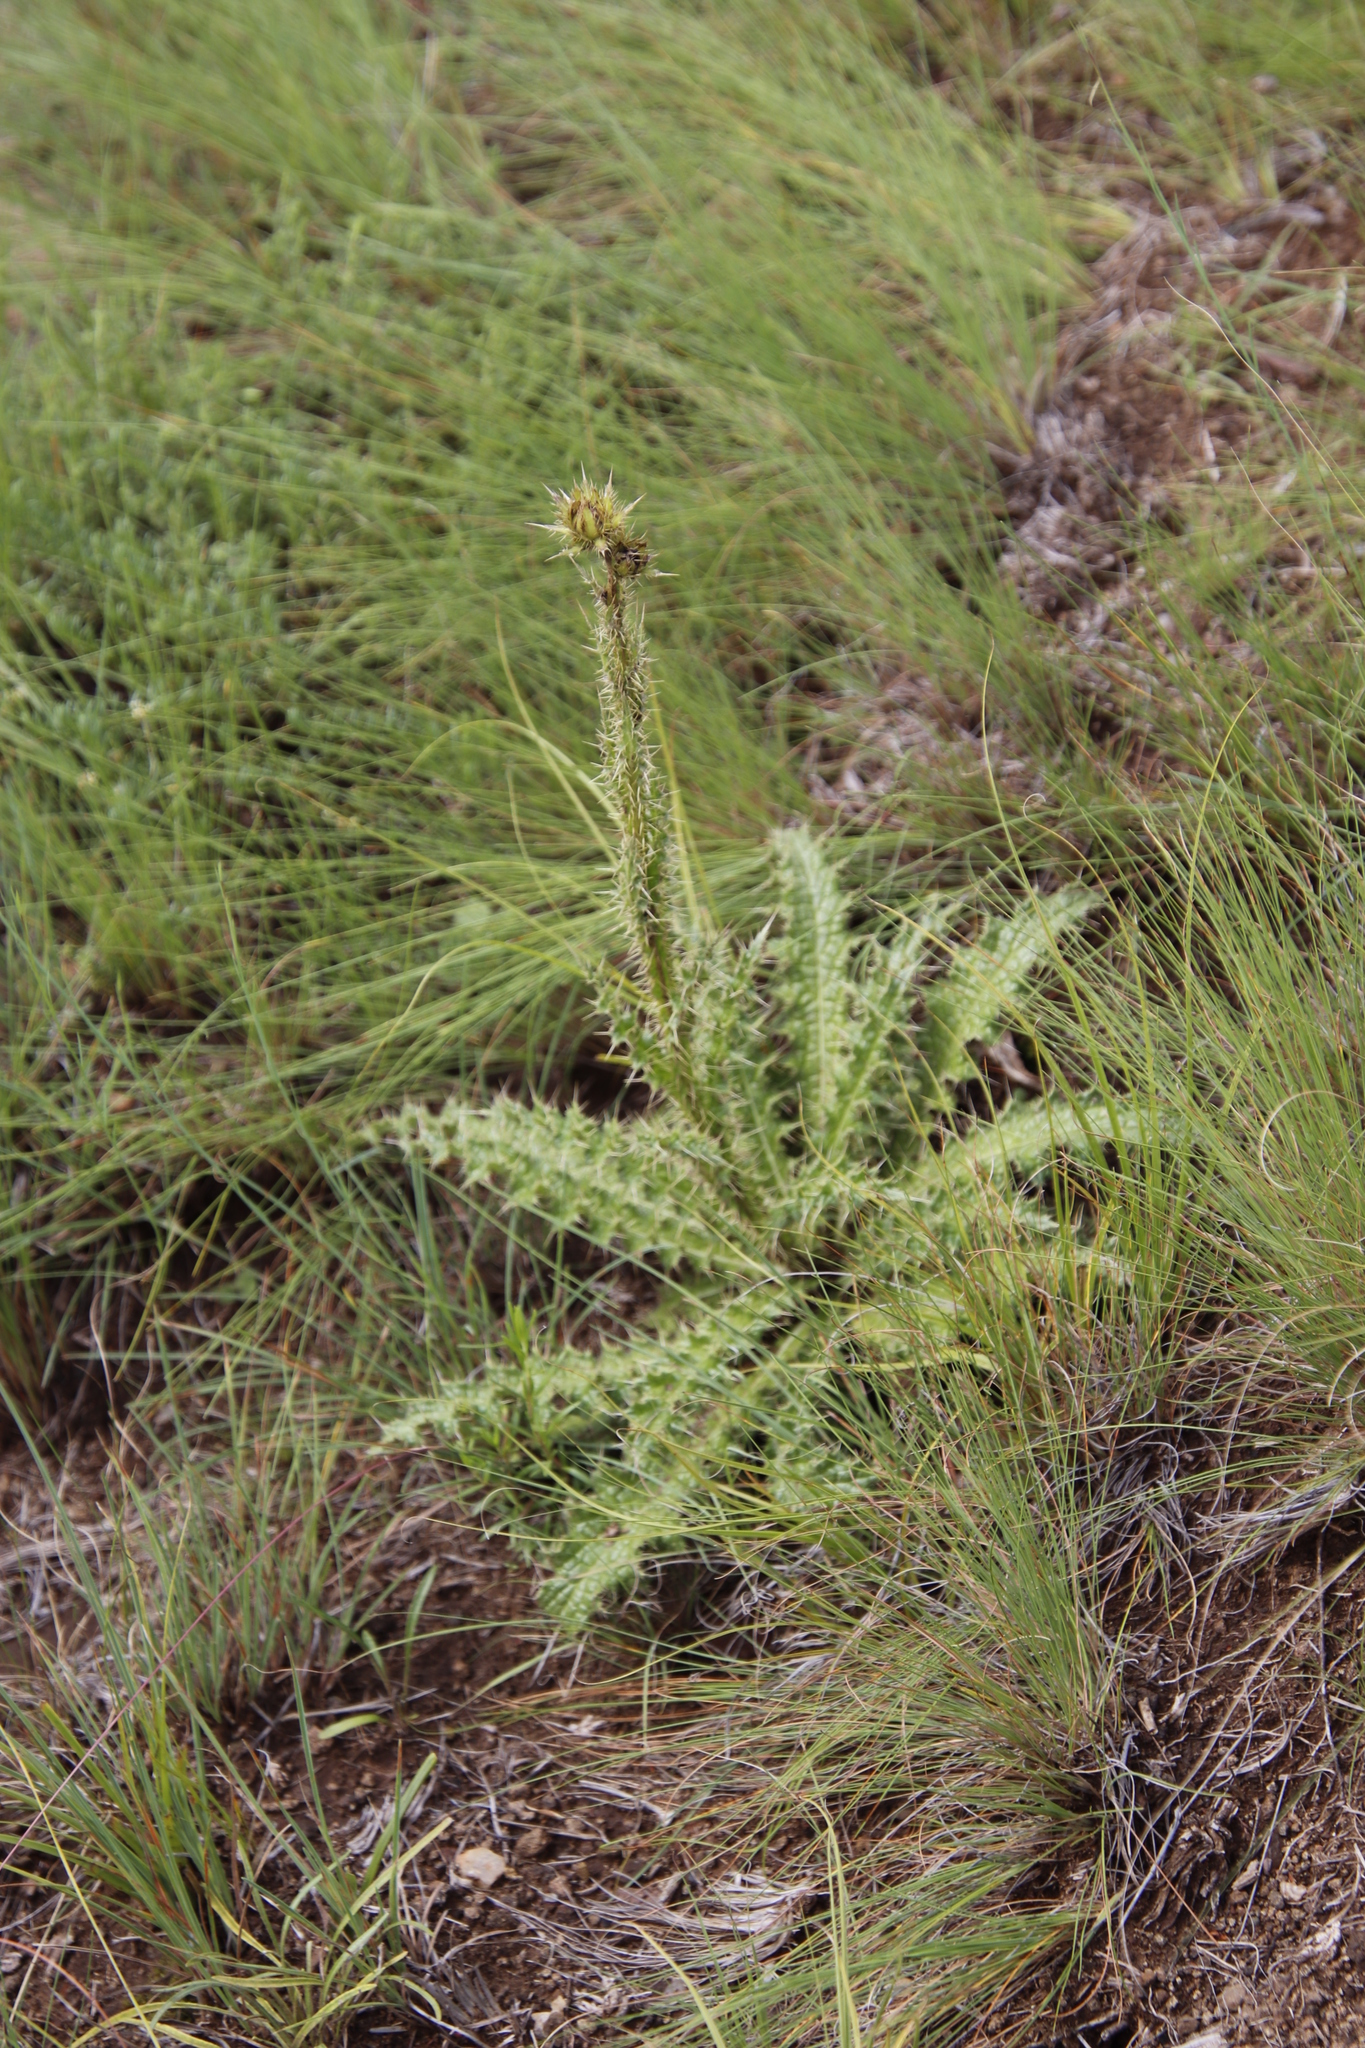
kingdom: Plantae
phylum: Tracheophyta
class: Magnoliopsida
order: Asterales
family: Asteraceae
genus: Berkheya
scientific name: Berkheya purpurea
